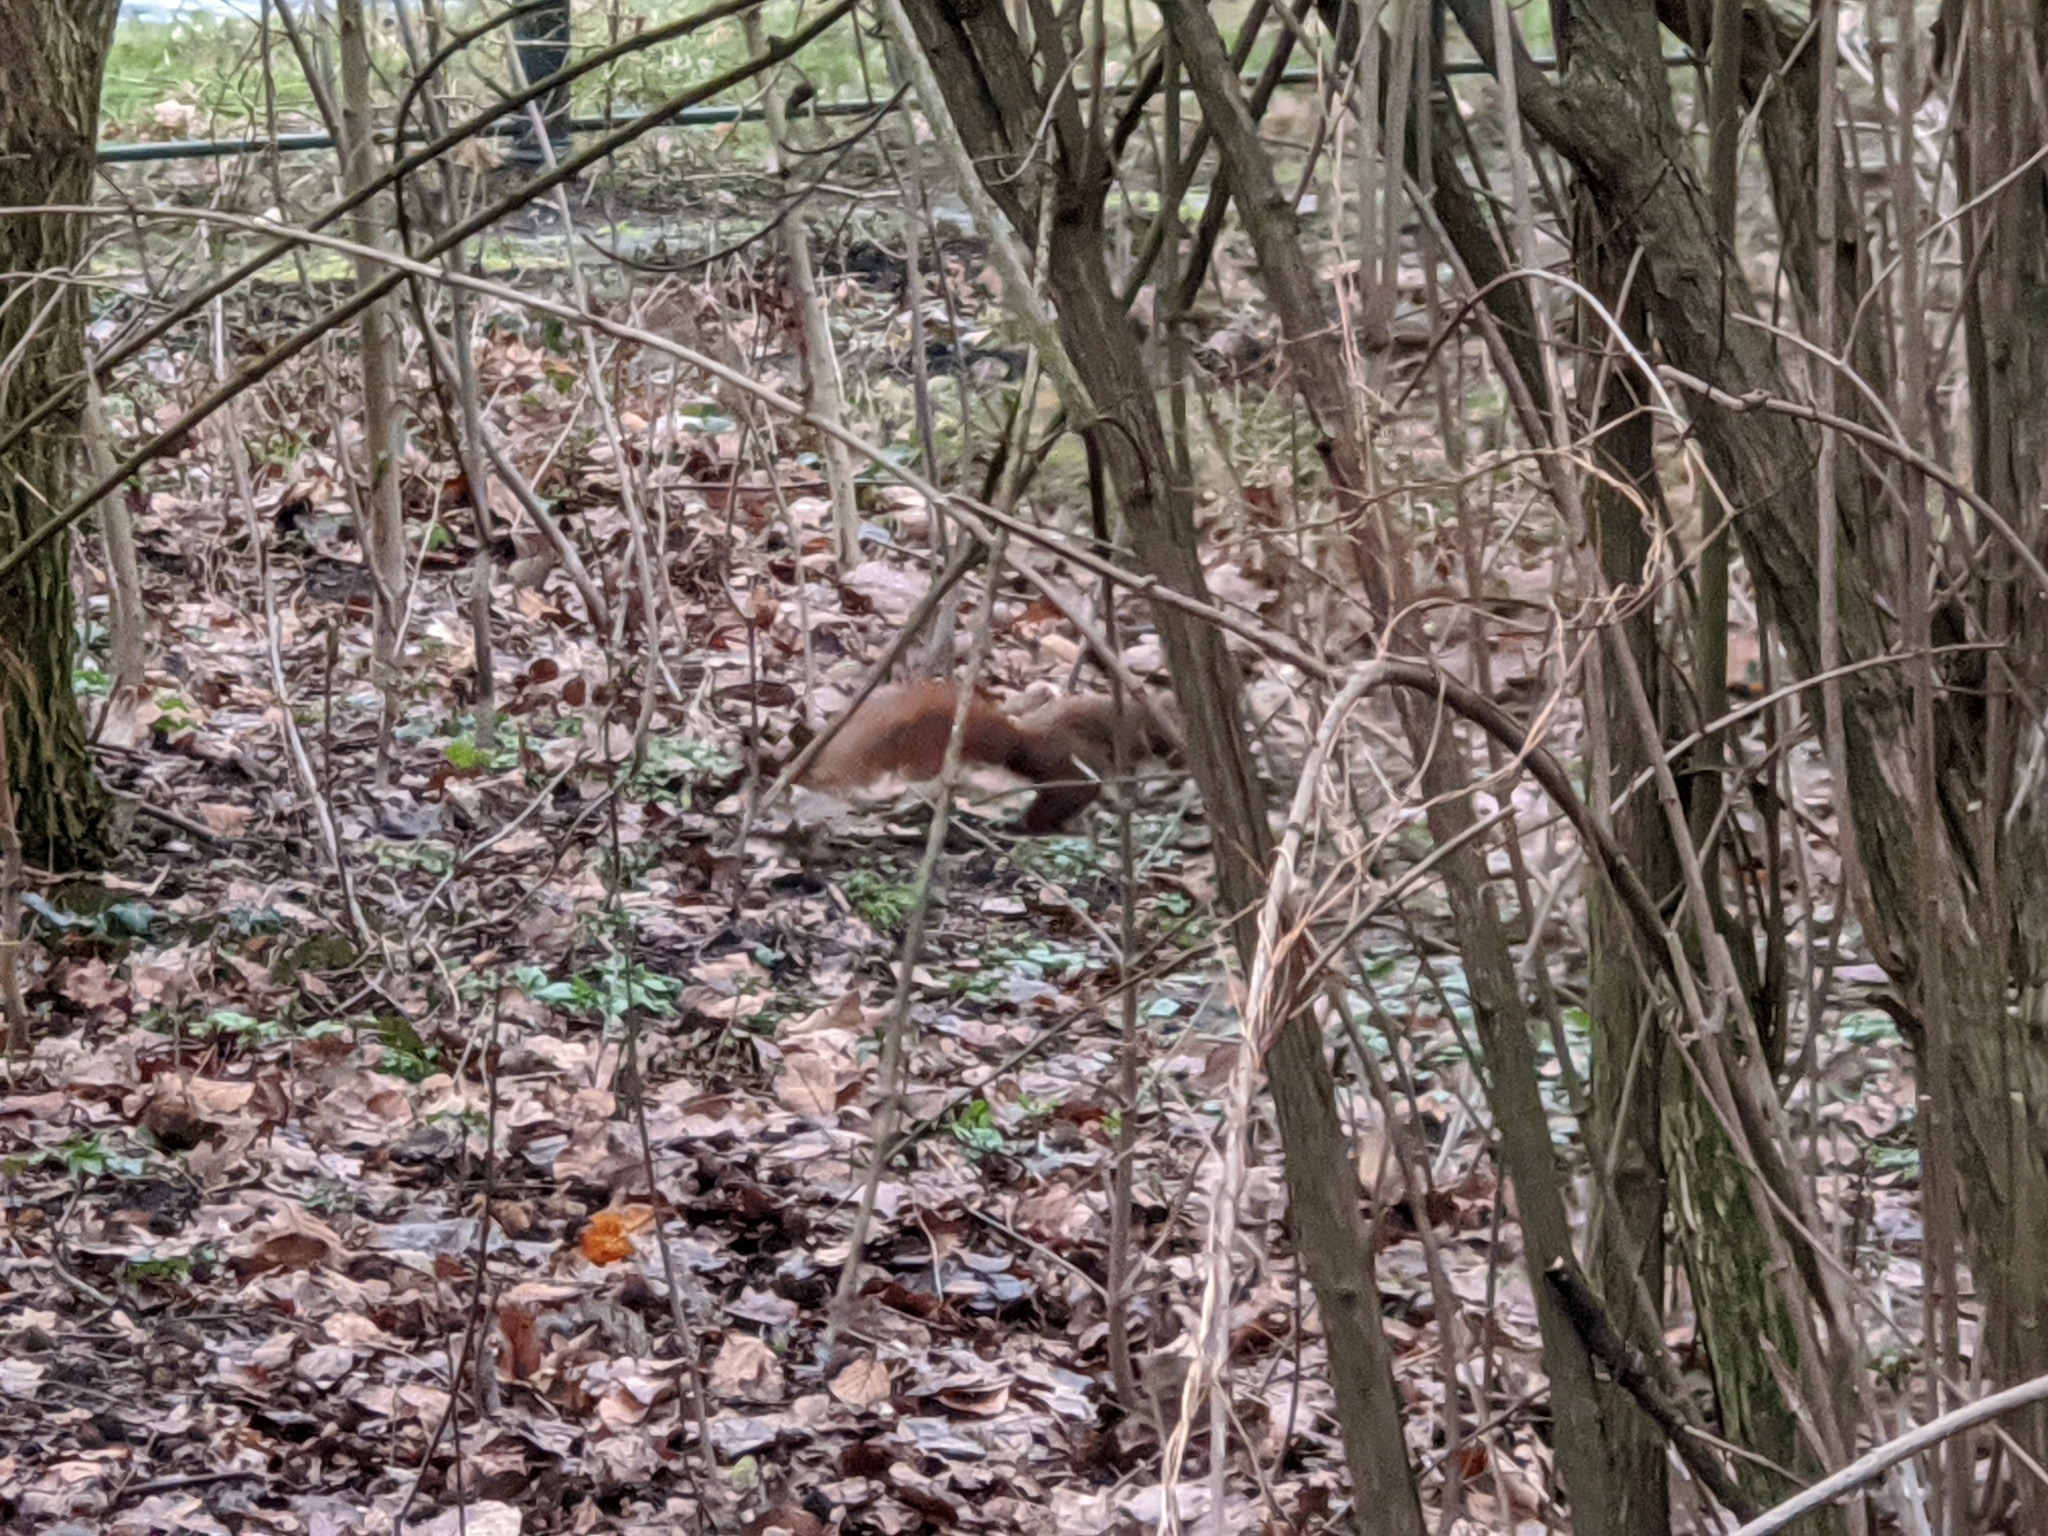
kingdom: Animalia
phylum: Chordata
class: Mammalia
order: Rodentia
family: Sciuridae
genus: Sciurus
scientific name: Sciurus vulgaris
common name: Eurasian red squirrel
